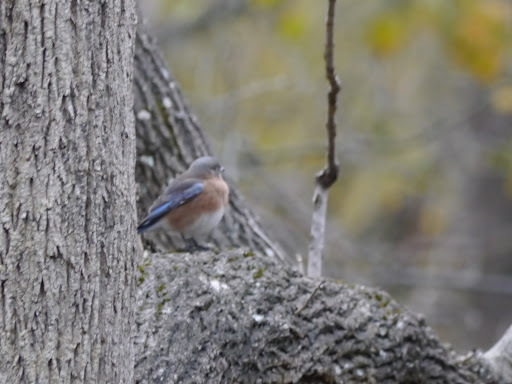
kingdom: Animalia
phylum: Chordata
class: Aves
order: Passeriformes
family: Turdidae
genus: Sialia
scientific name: Sialia sialis
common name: Eastern bluebird
